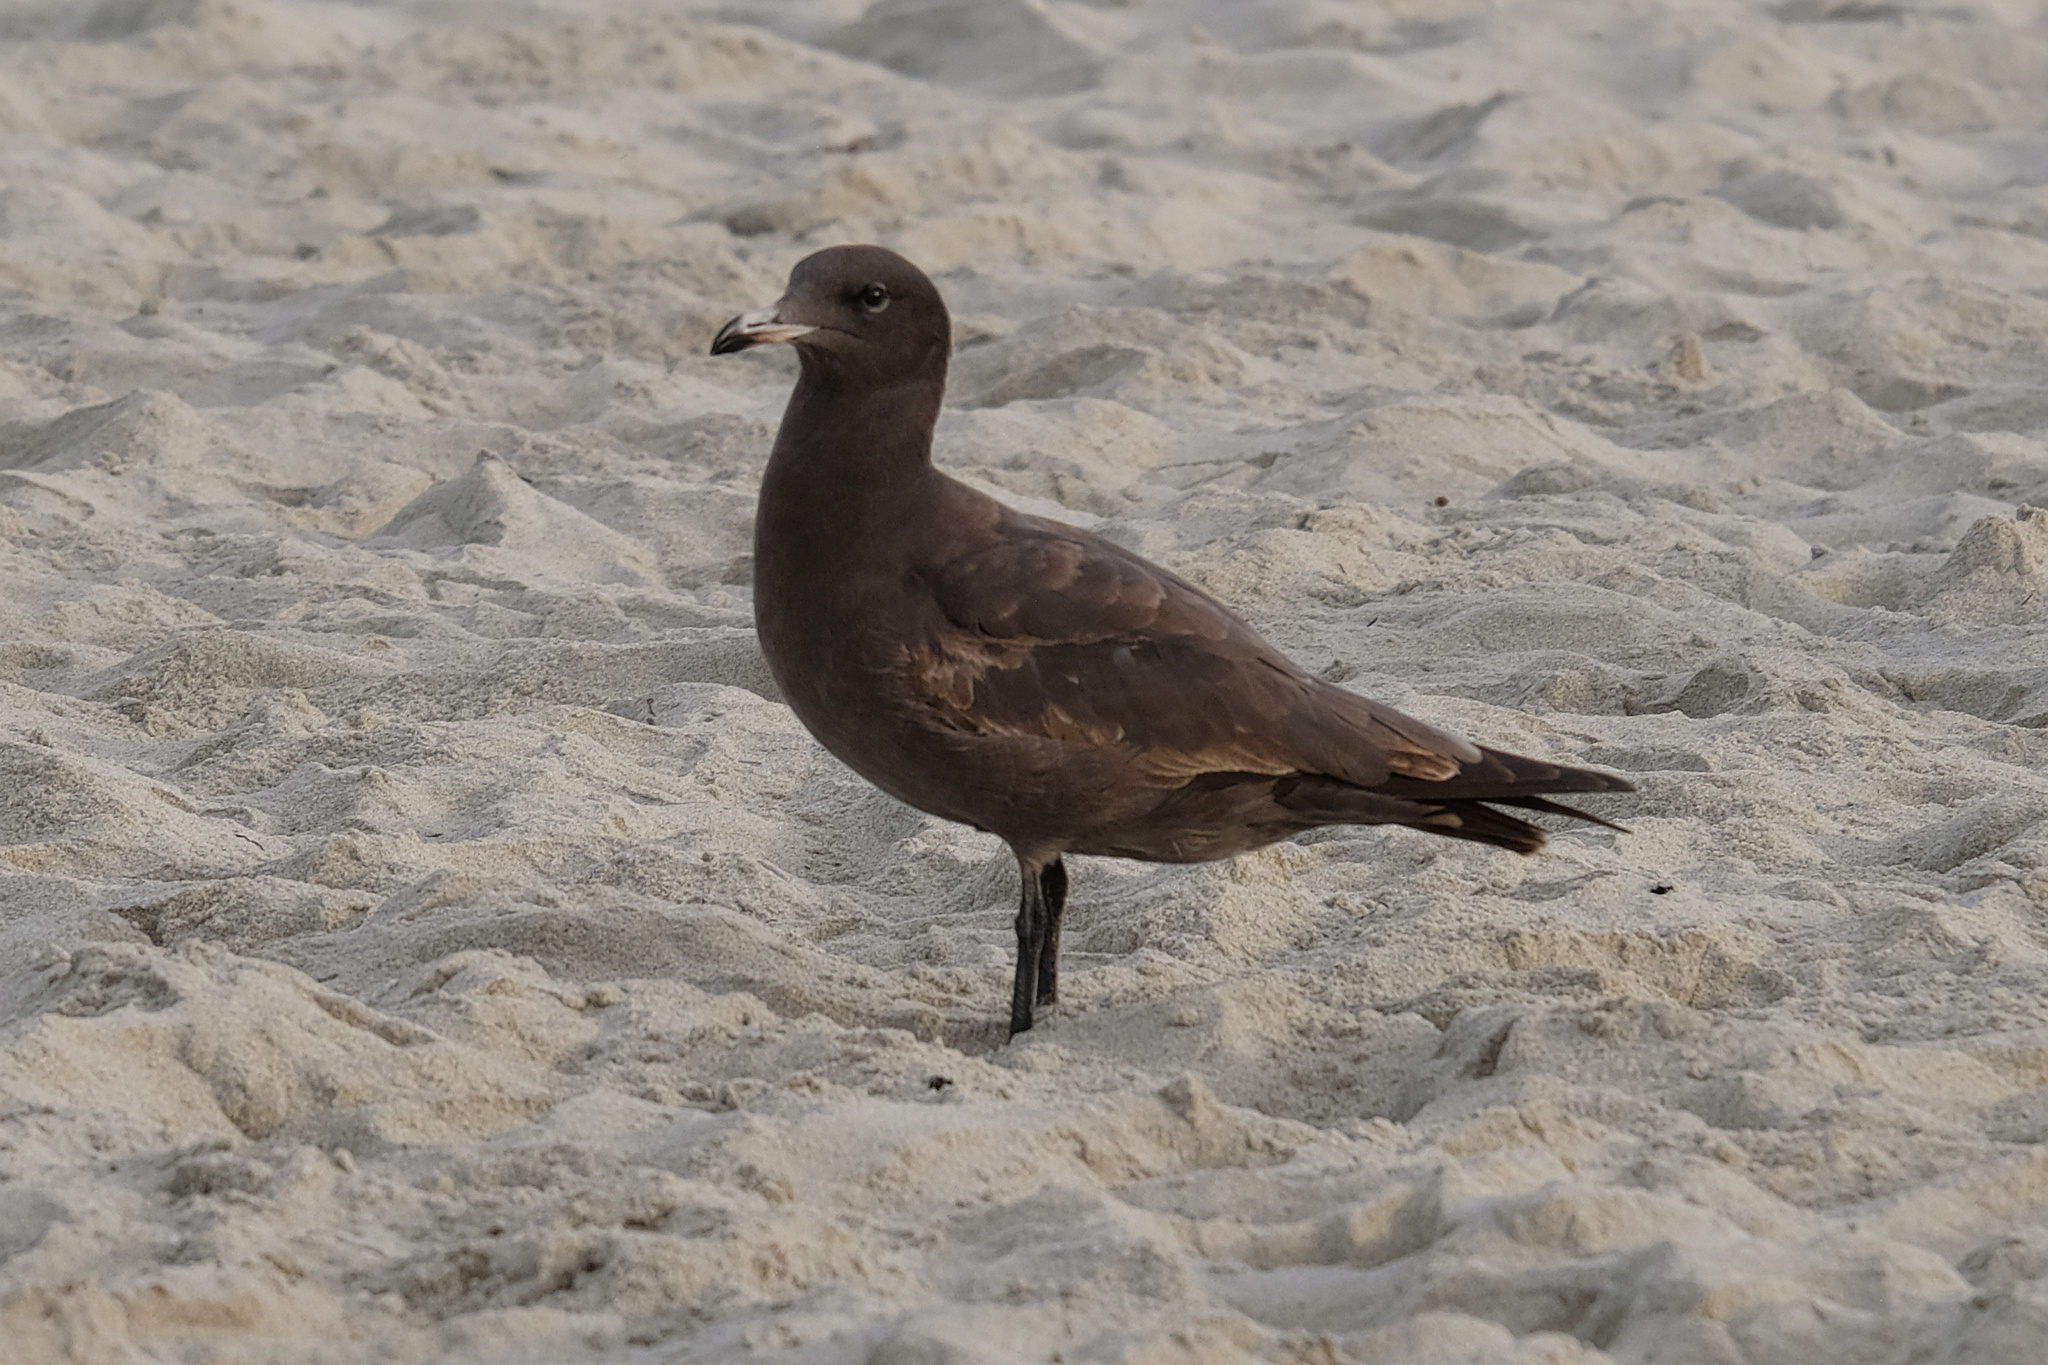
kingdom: Animalia
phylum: Chordata
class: Aves
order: Charadriiformes
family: Laridae
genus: Larus
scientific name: Larus heermanni
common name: Heermann's gull
